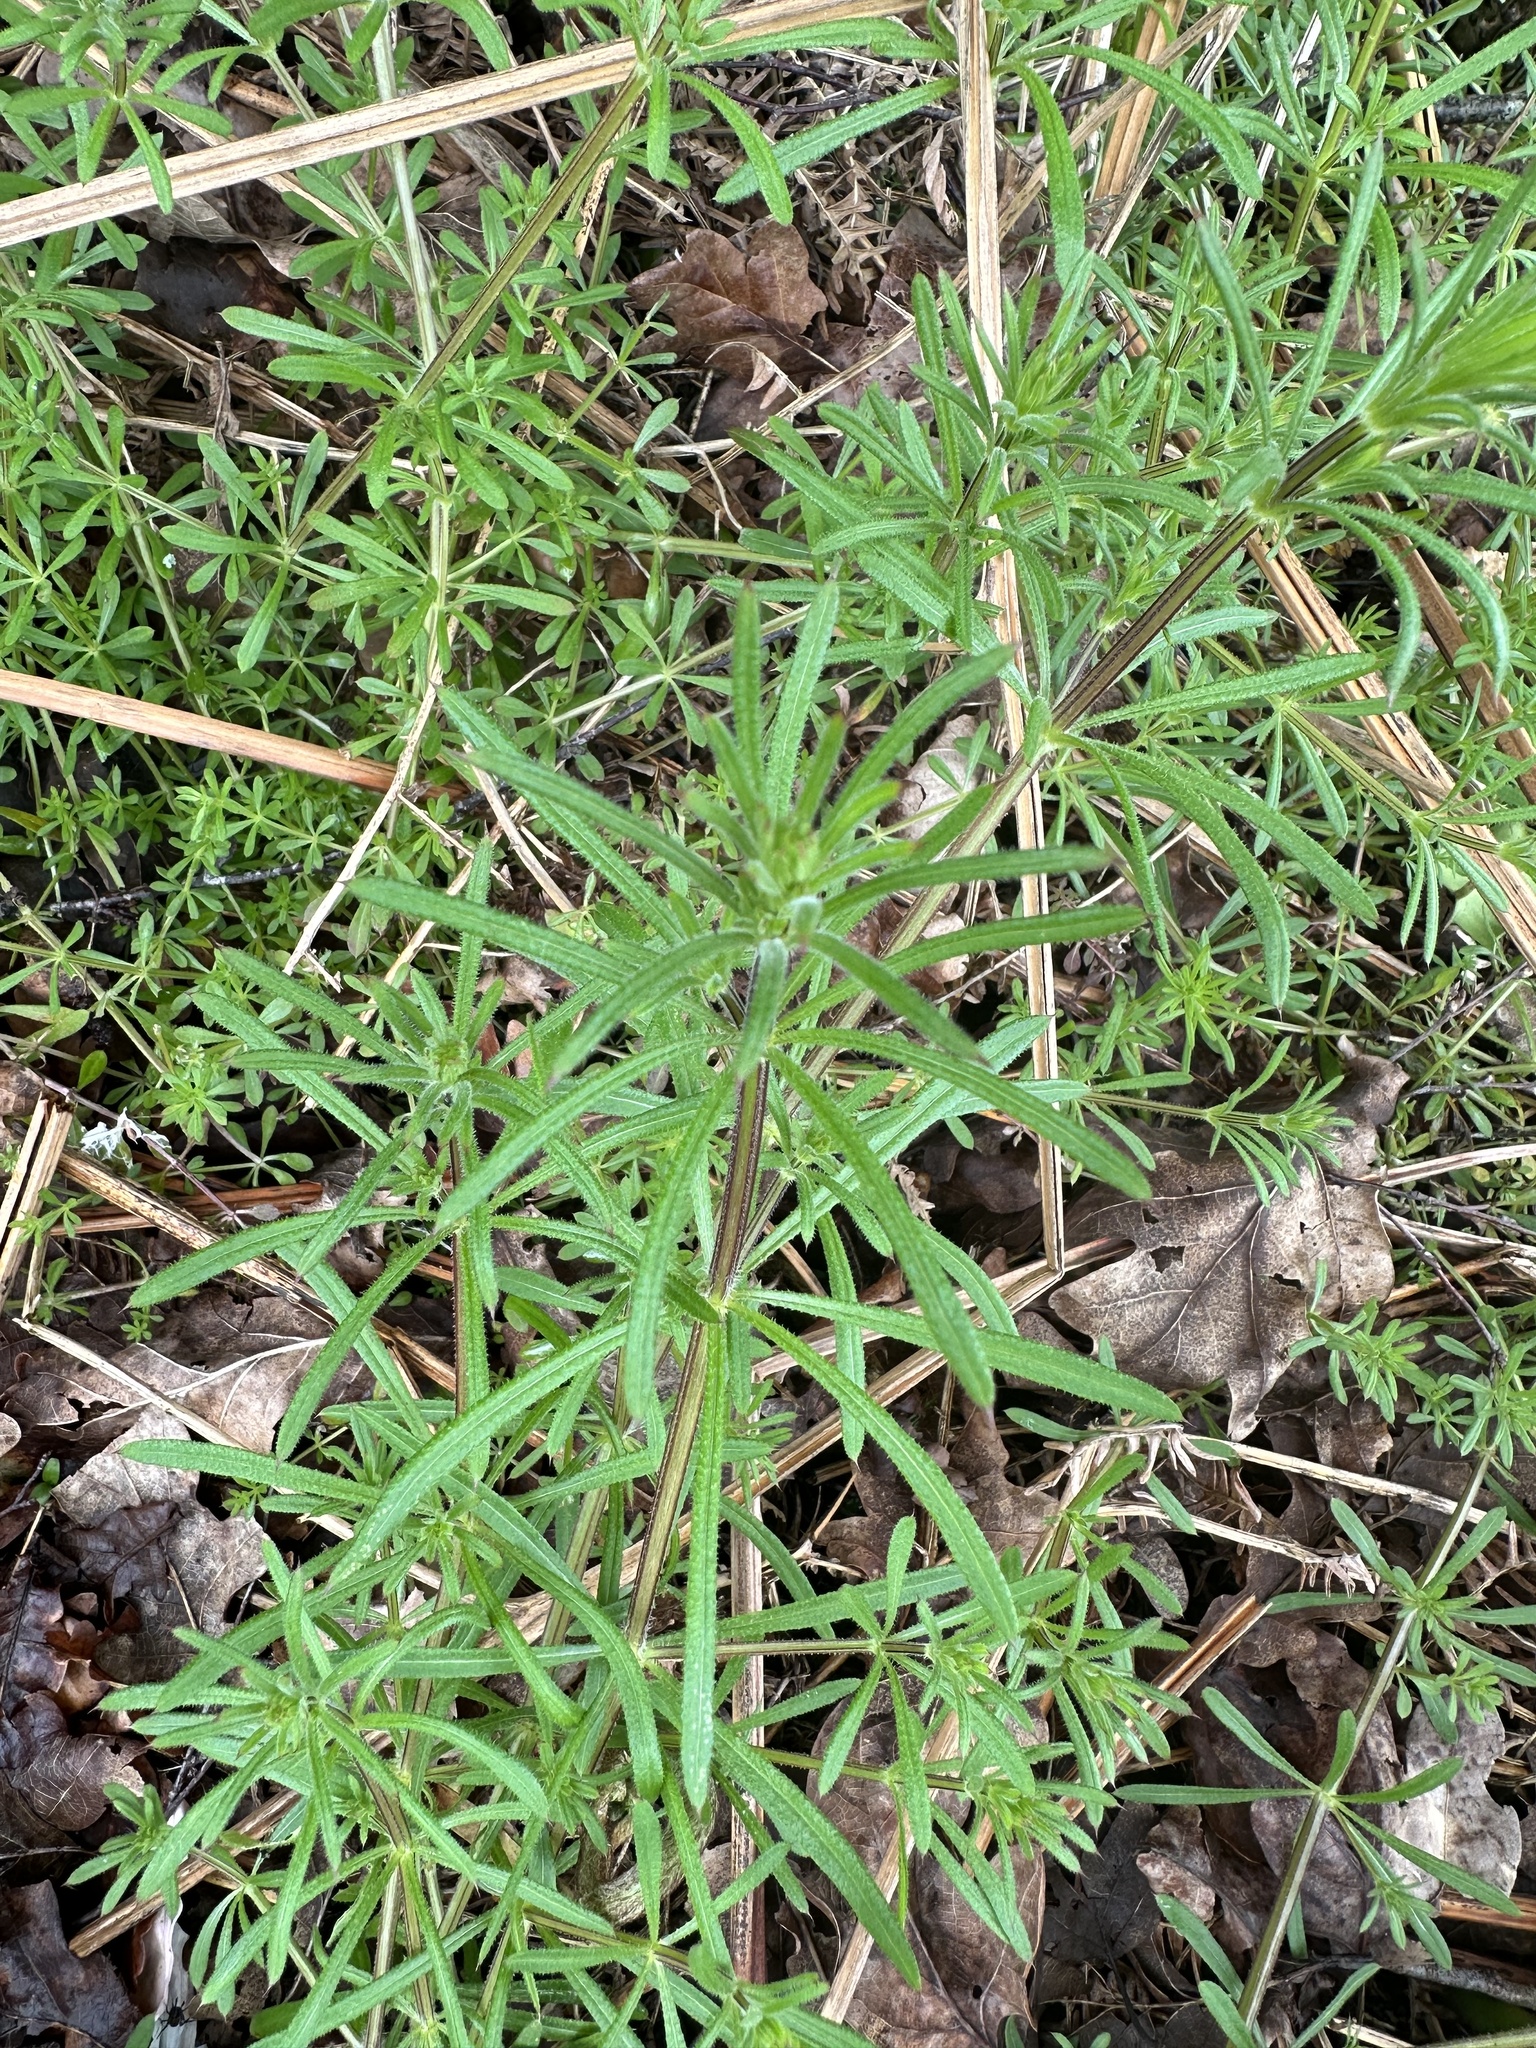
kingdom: Plantae
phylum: Tracheophyta
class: Magnoliopsida
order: Gentianales
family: Rubiaceae
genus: Galium
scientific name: Galium aparine
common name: Cleavers
